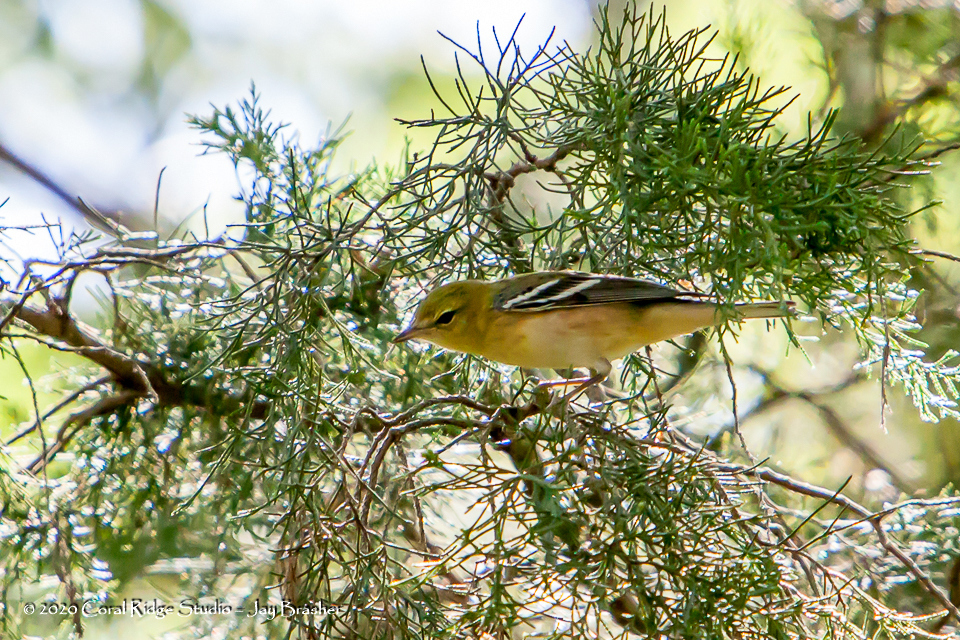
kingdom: Animalia
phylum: Chordata
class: Aves
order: Passeriformes
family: Parulidae
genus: Setophaga
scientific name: Setophaga castanea
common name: Bay-breasted warbler
